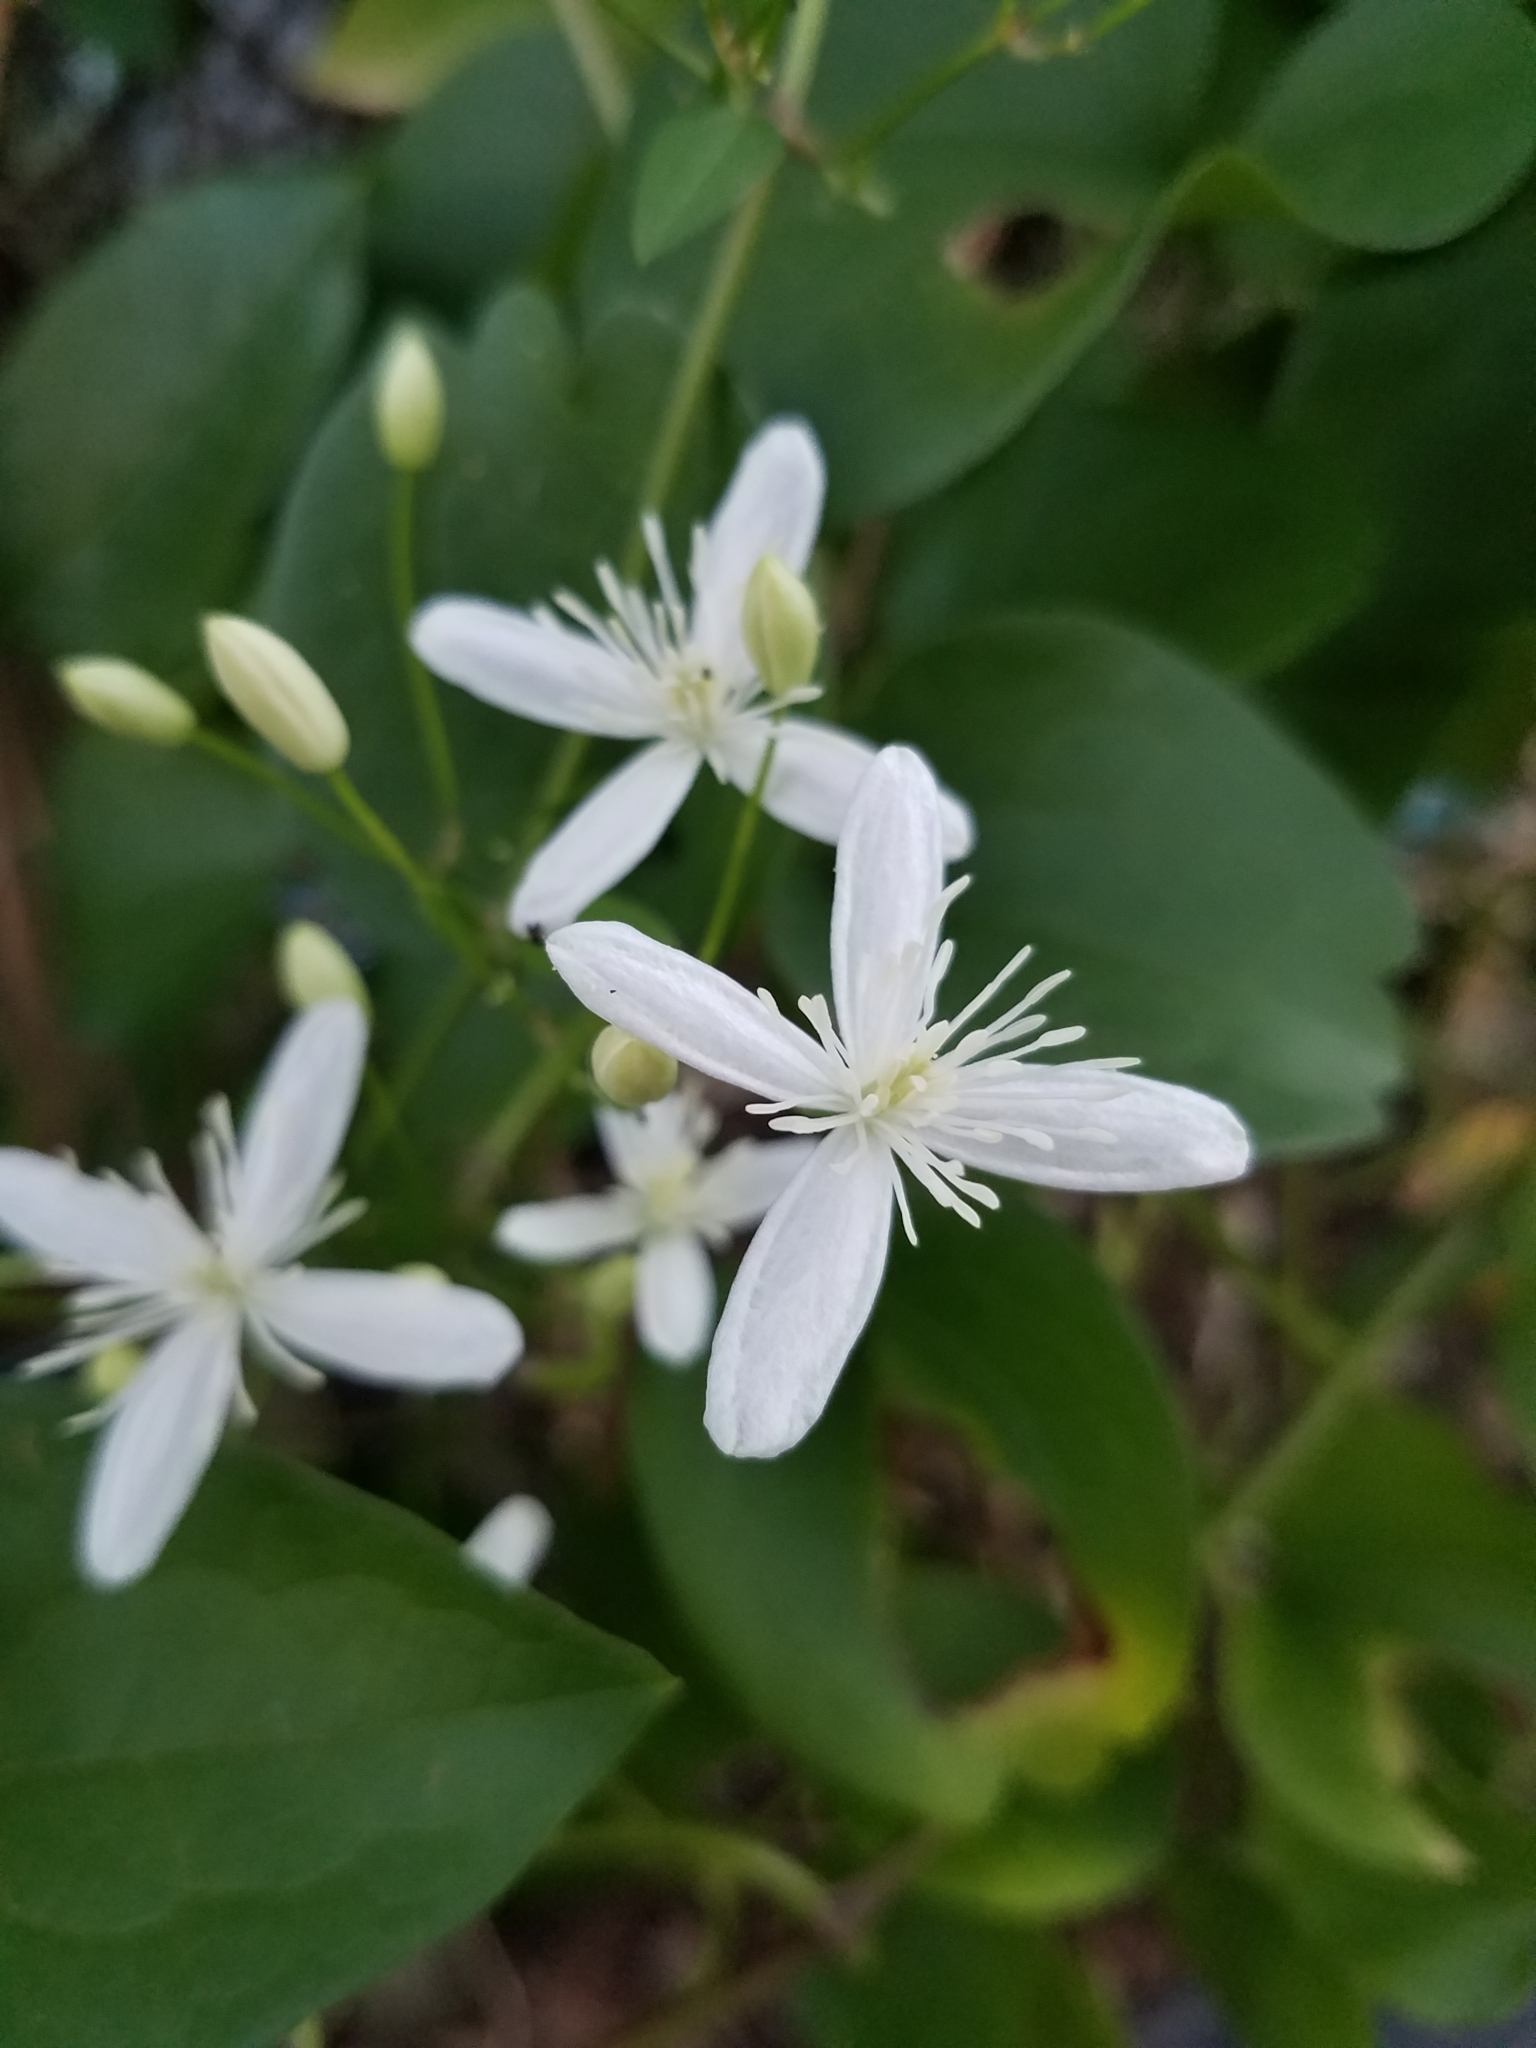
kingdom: Plantae
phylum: Tracheophyta
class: Magnoliopsida
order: Ranunculales
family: Ranunculaceae
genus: Clematis
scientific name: Clematis terniflora
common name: Sweet autumn clematis
